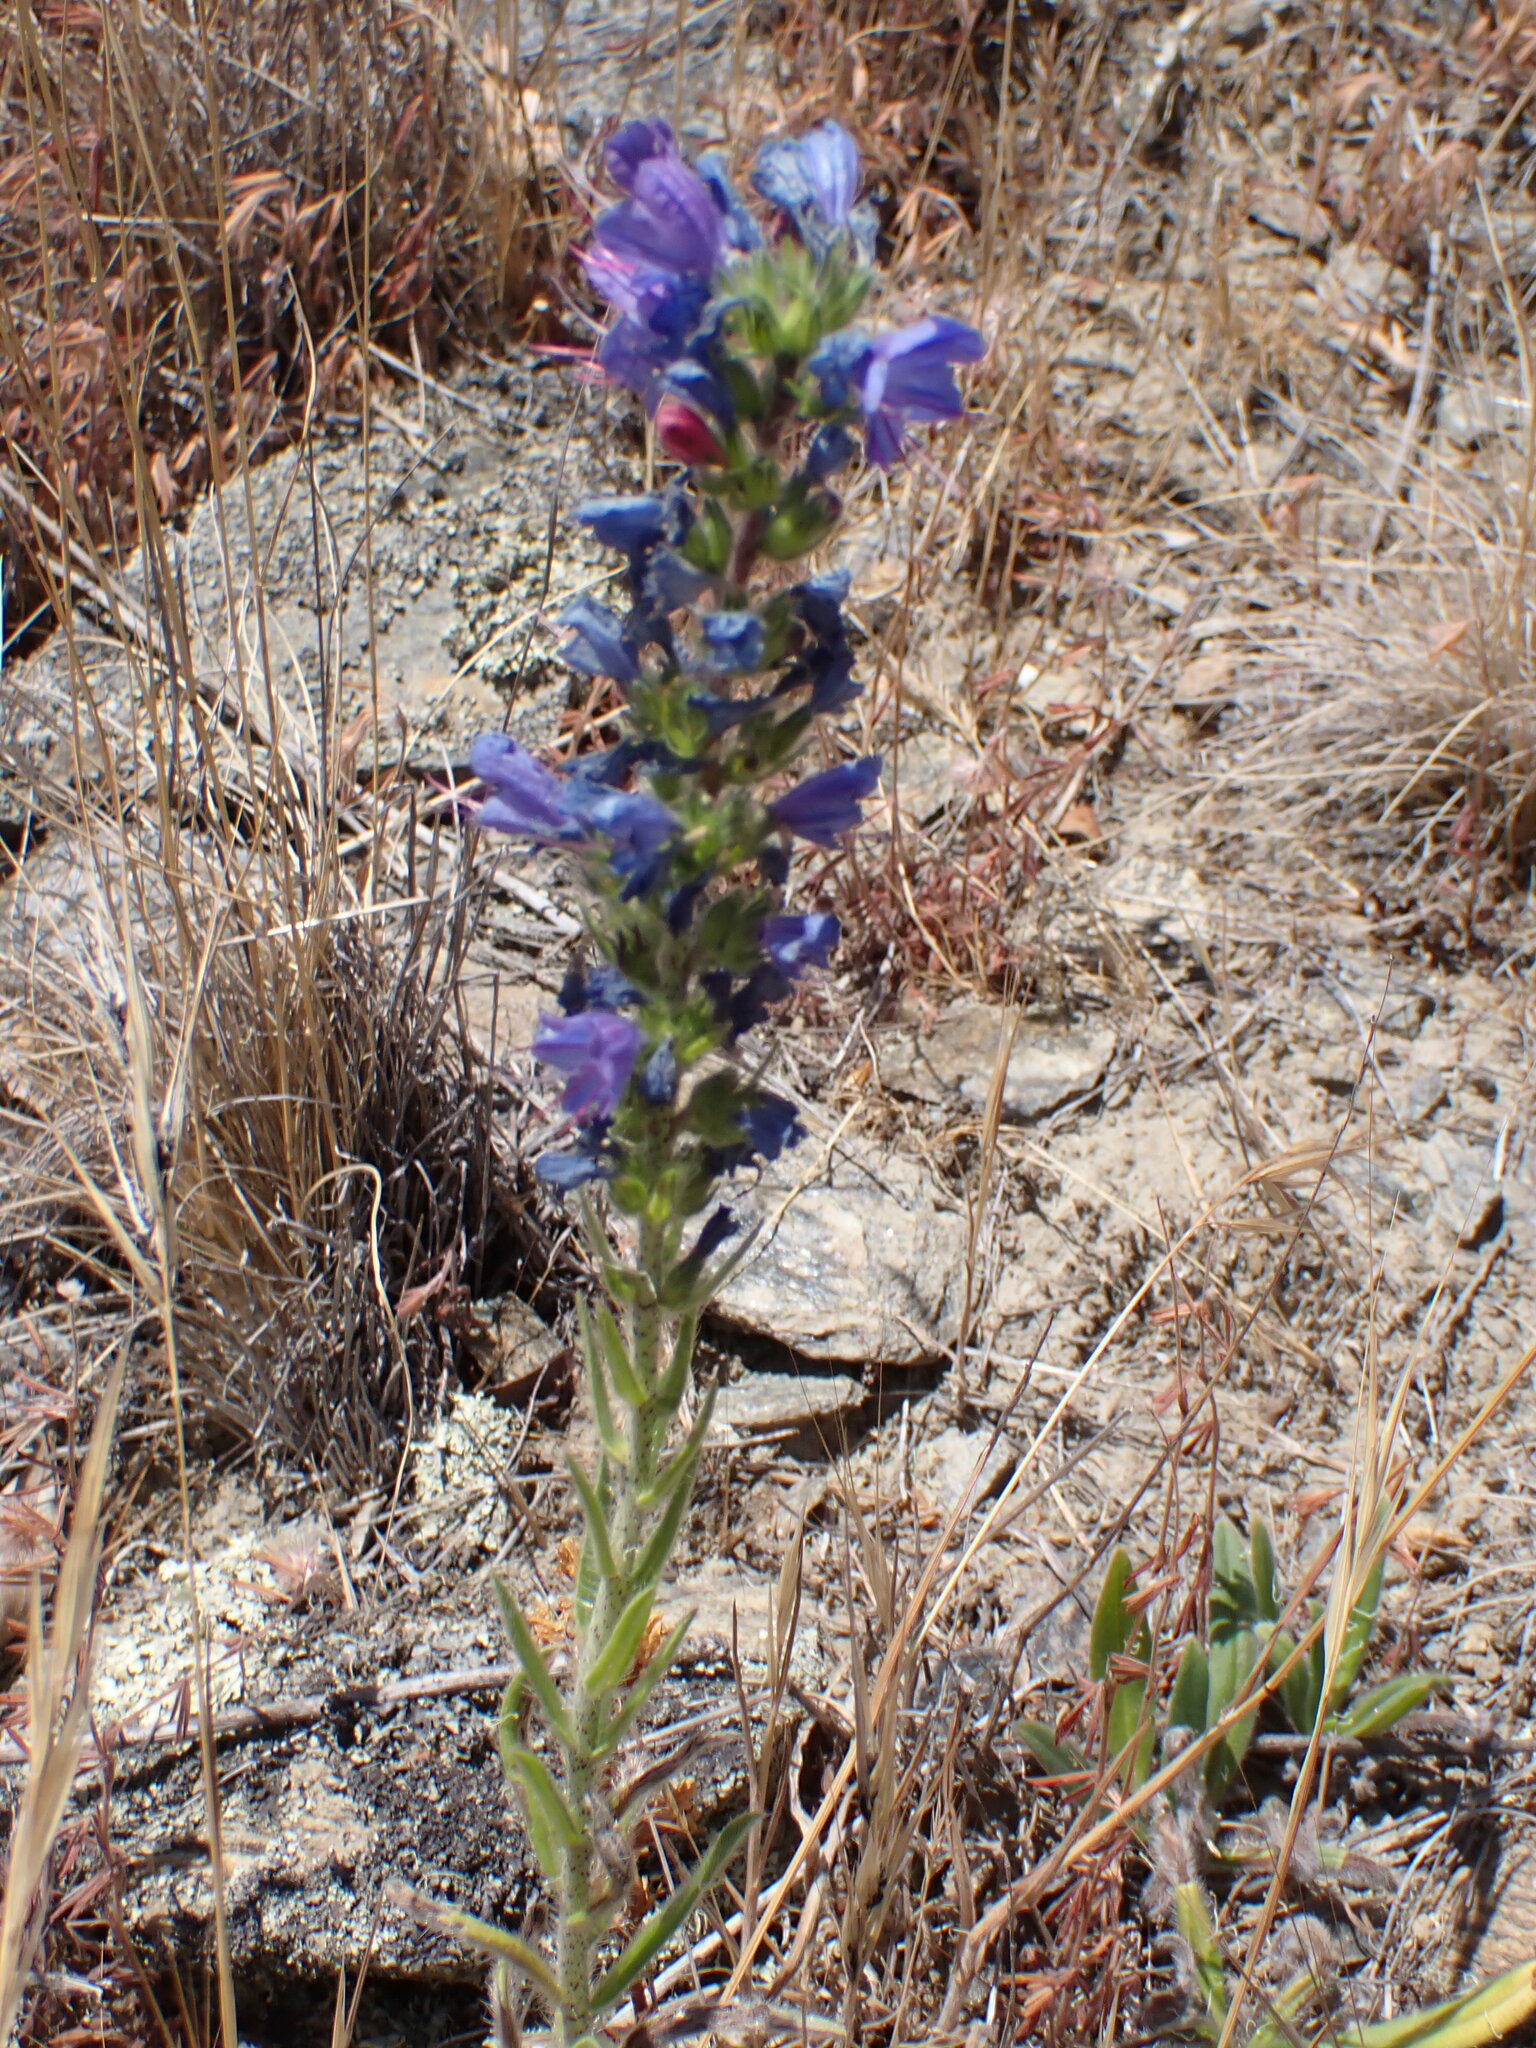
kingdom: Plantae
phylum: Tracheophyta
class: Magnoliopsida
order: Boraginales
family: Boraginaceae
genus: Echium
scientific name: Echium vulgare
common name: Common viper's bugloss
